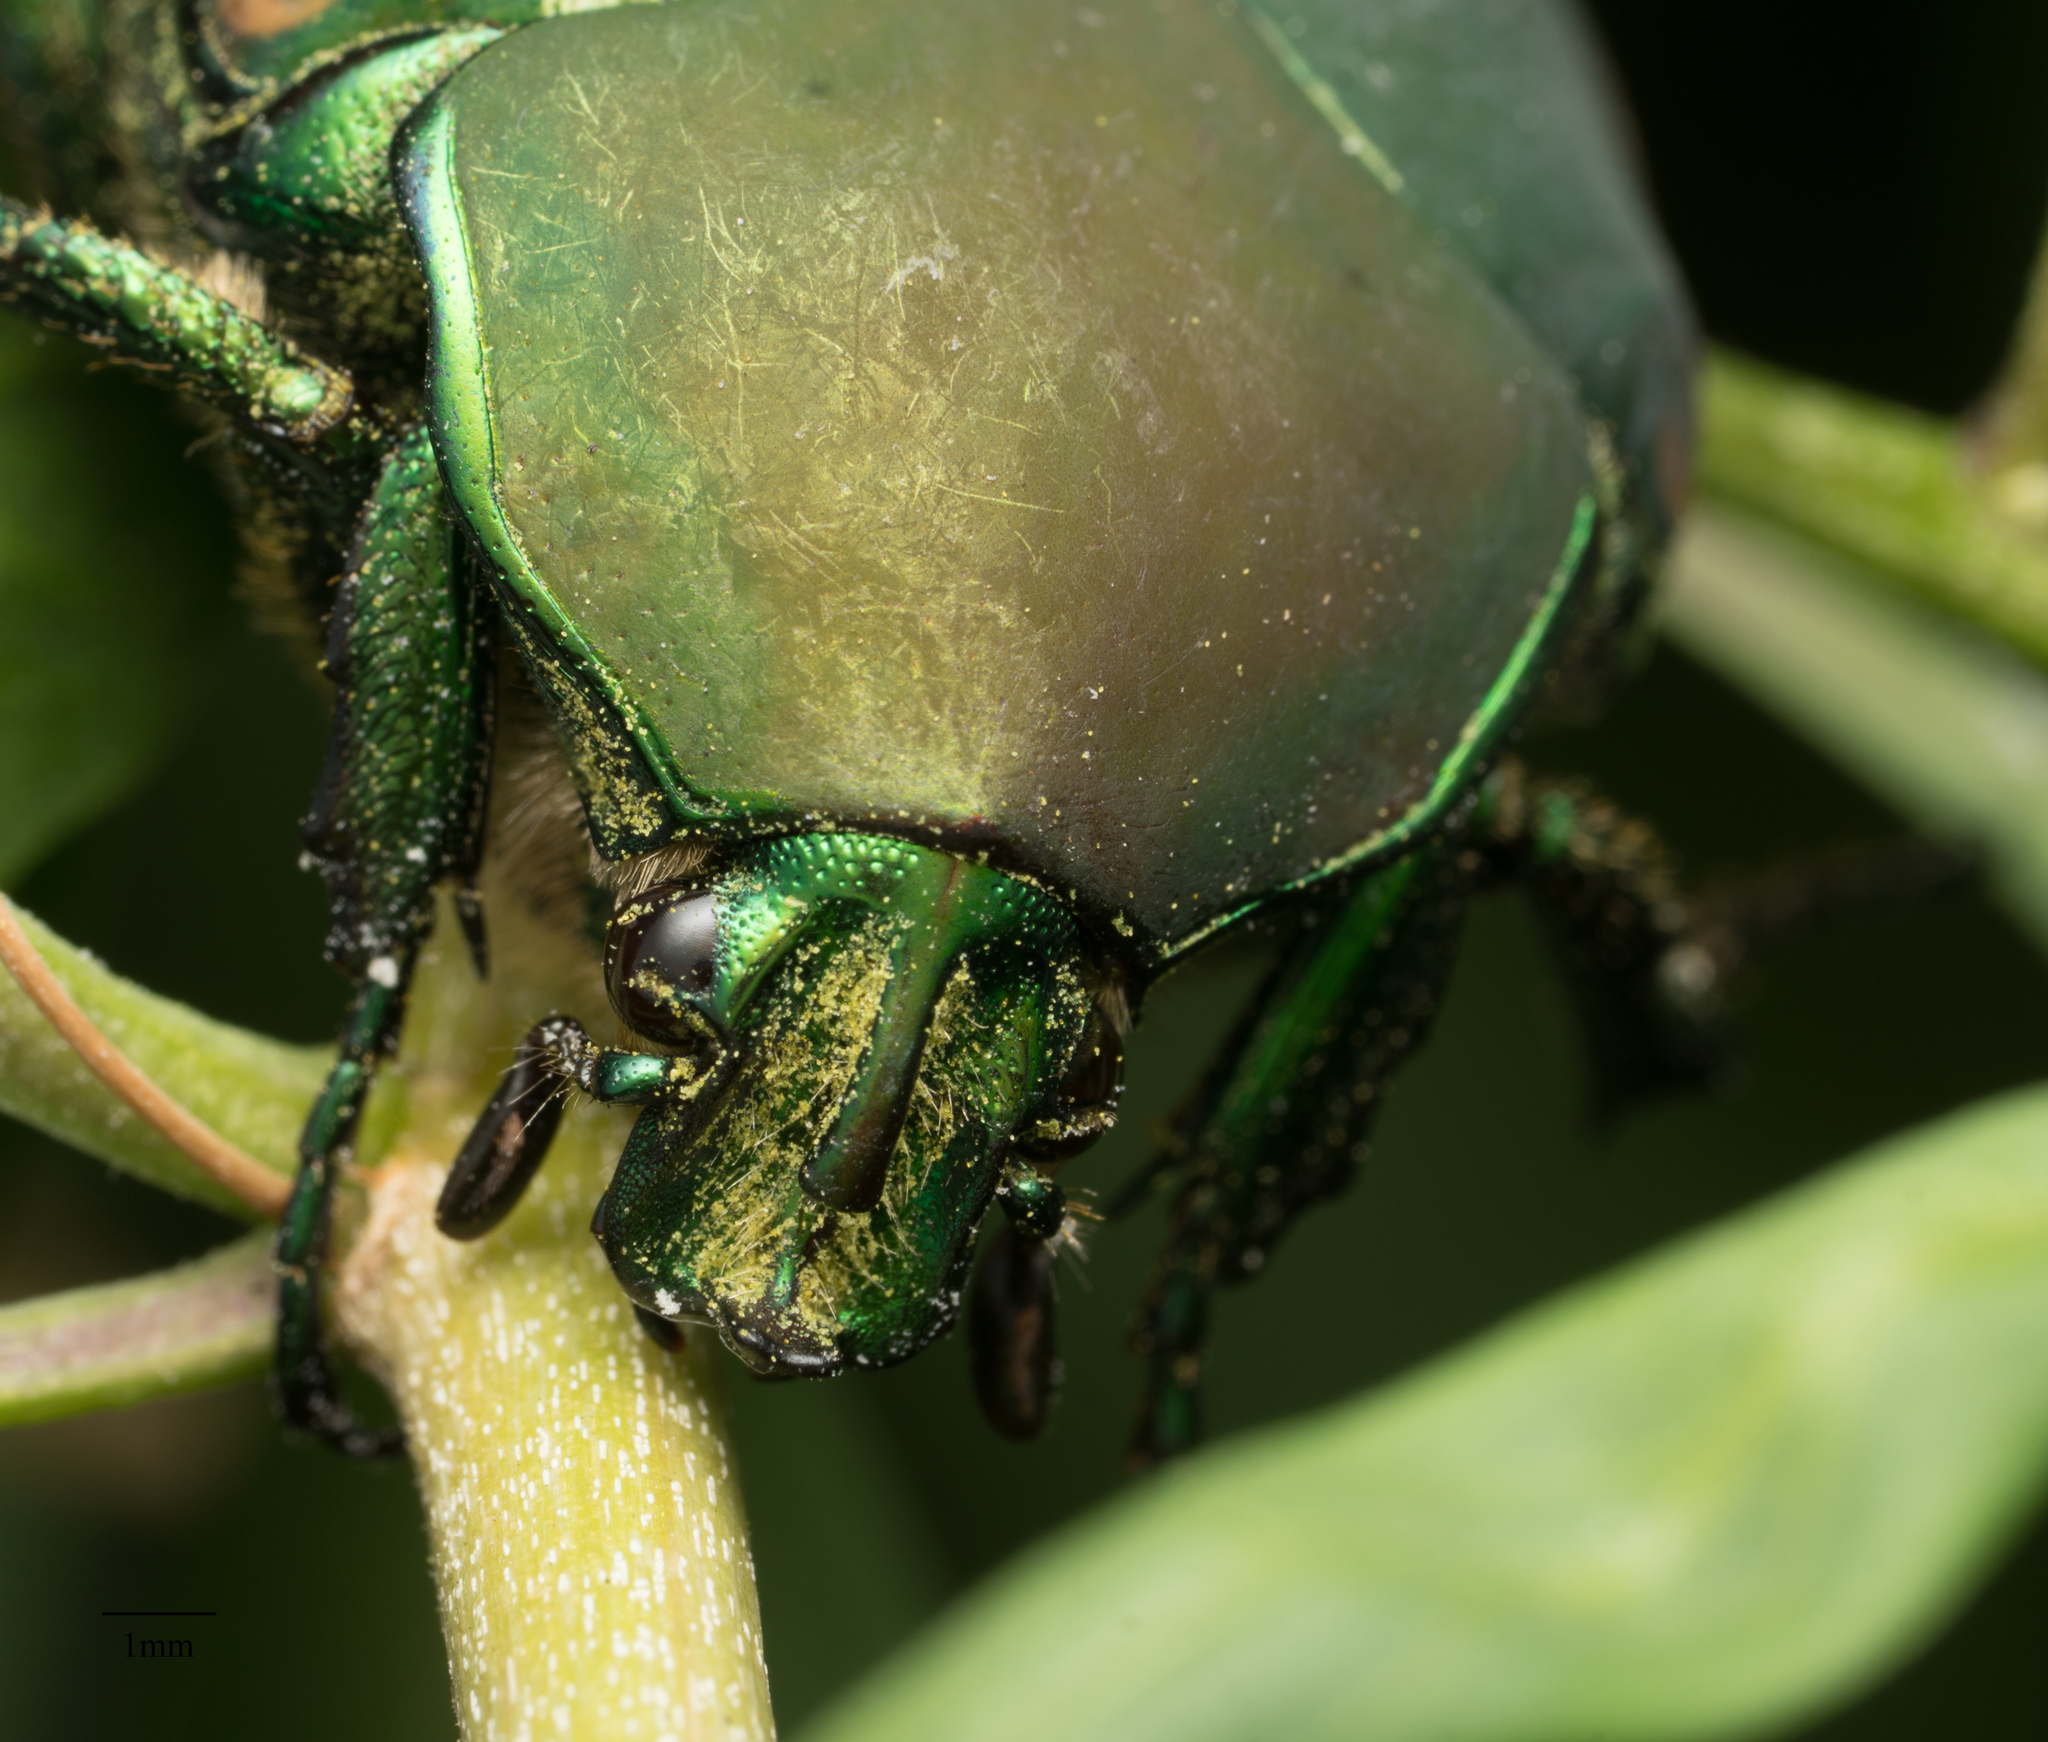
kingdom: Animalia
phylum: Arthropoda
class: Insecta
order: Coleoptera
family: Scarabaeidae
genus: Cotinis
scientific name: Cotinis mutabilis
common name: Figeater beetle
